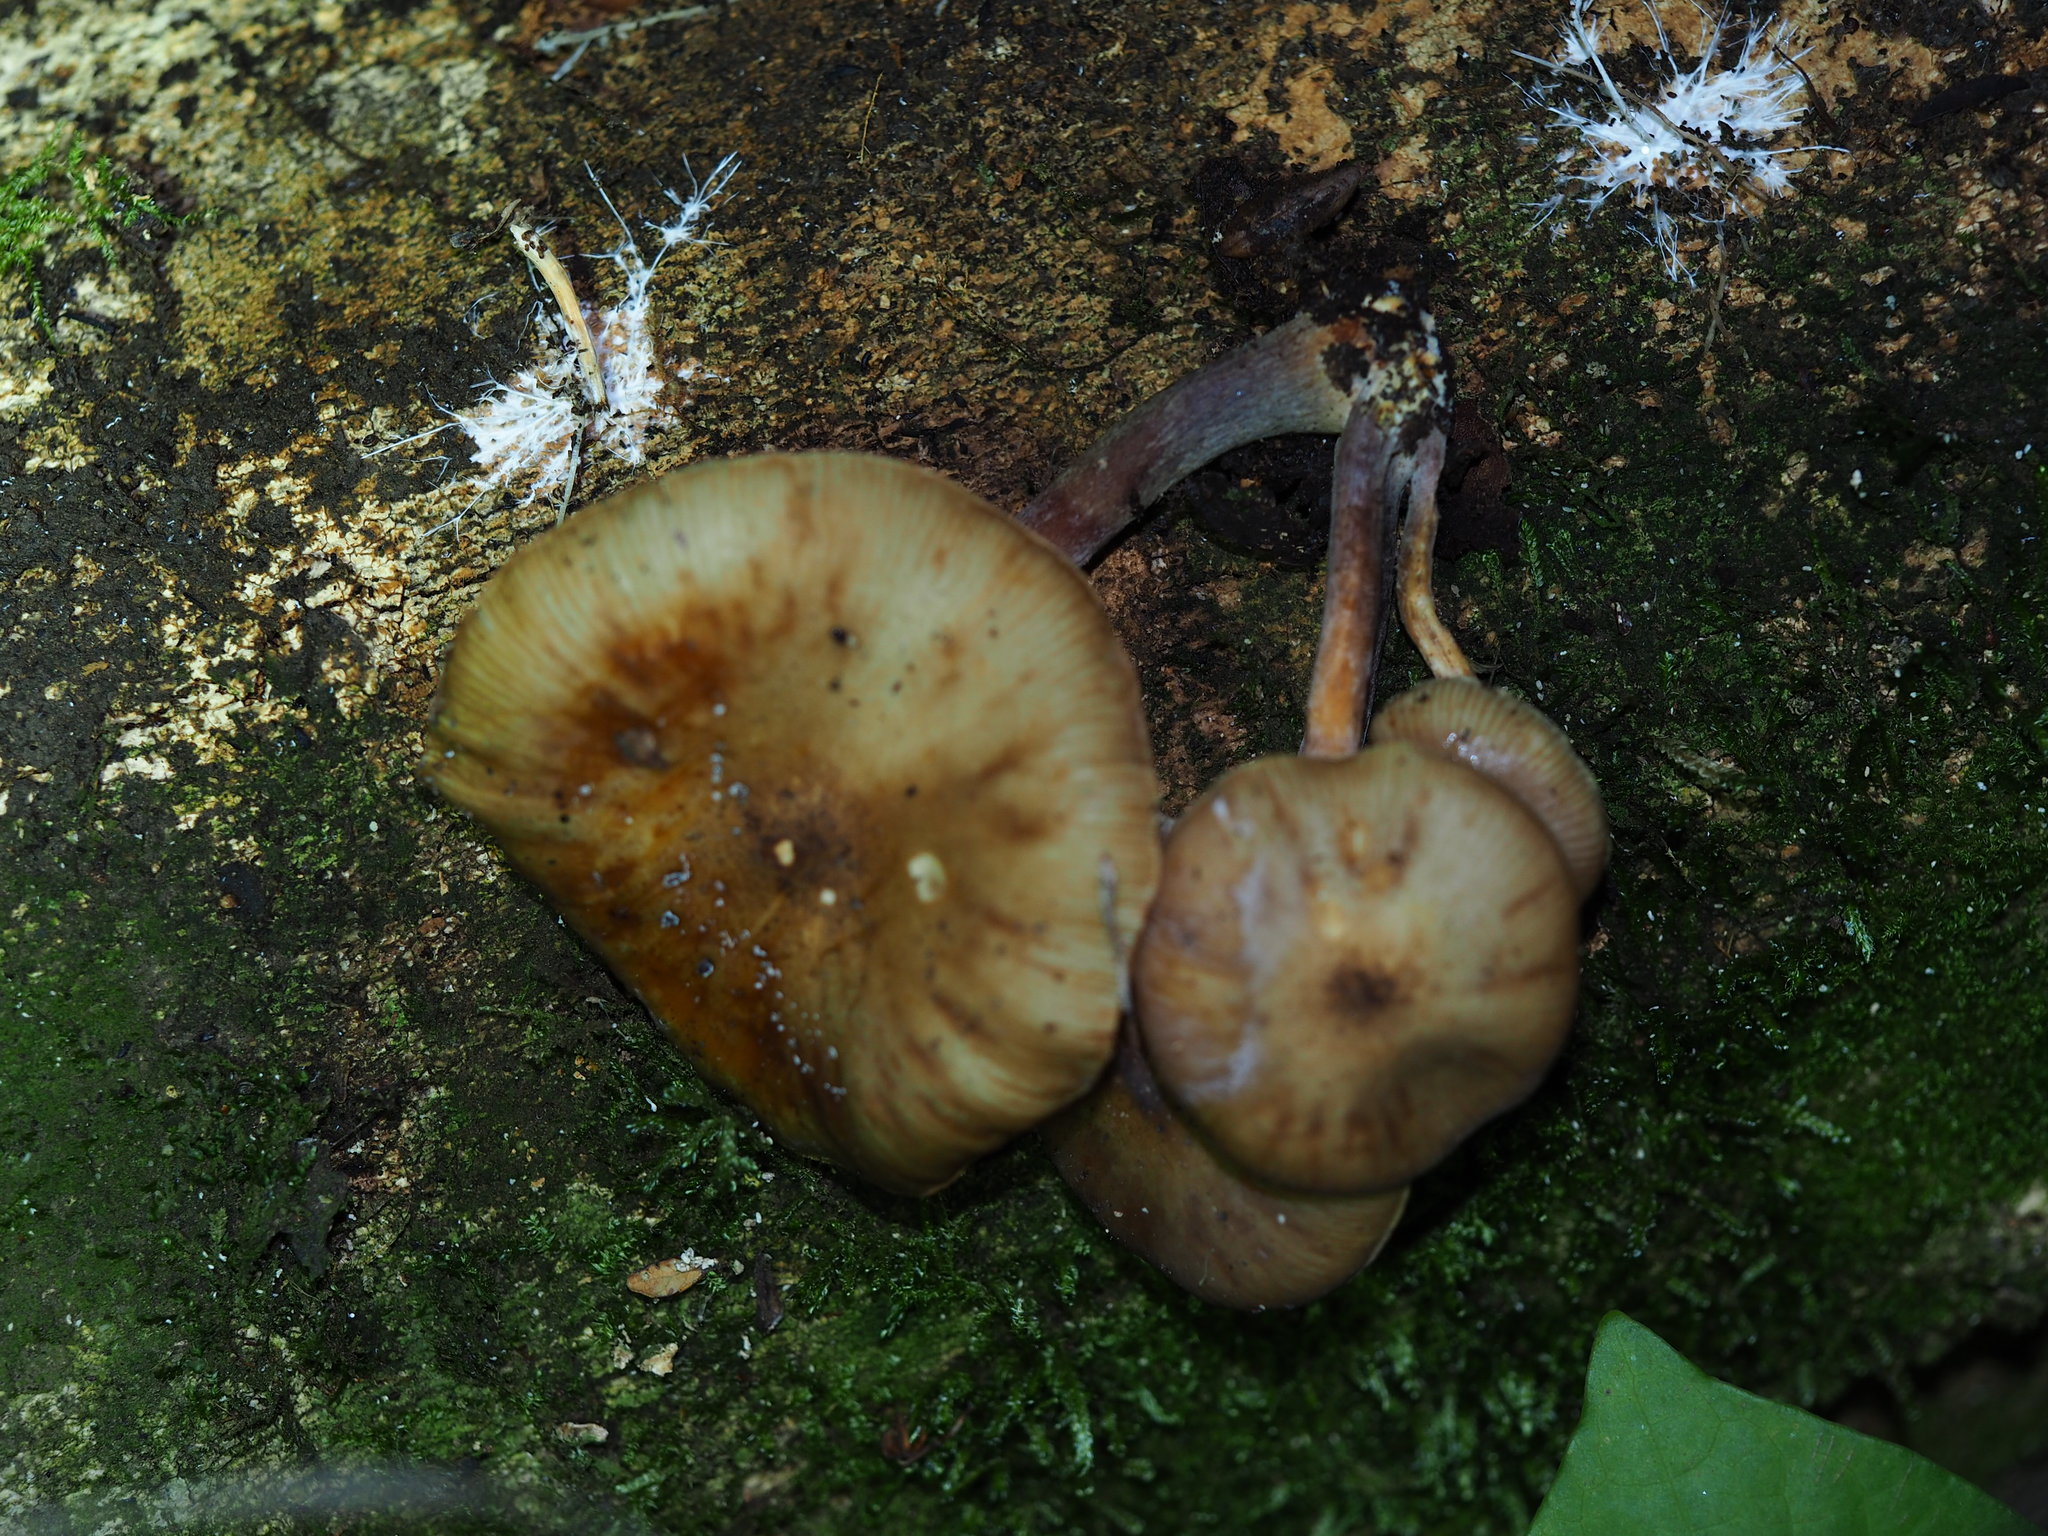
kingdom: Fungi
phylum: Basidiomycota
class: Agaricomycetes
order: Agaricales
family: Physalacriaceae
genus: Armillaria
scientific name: Armillaria novae-zelandiae
